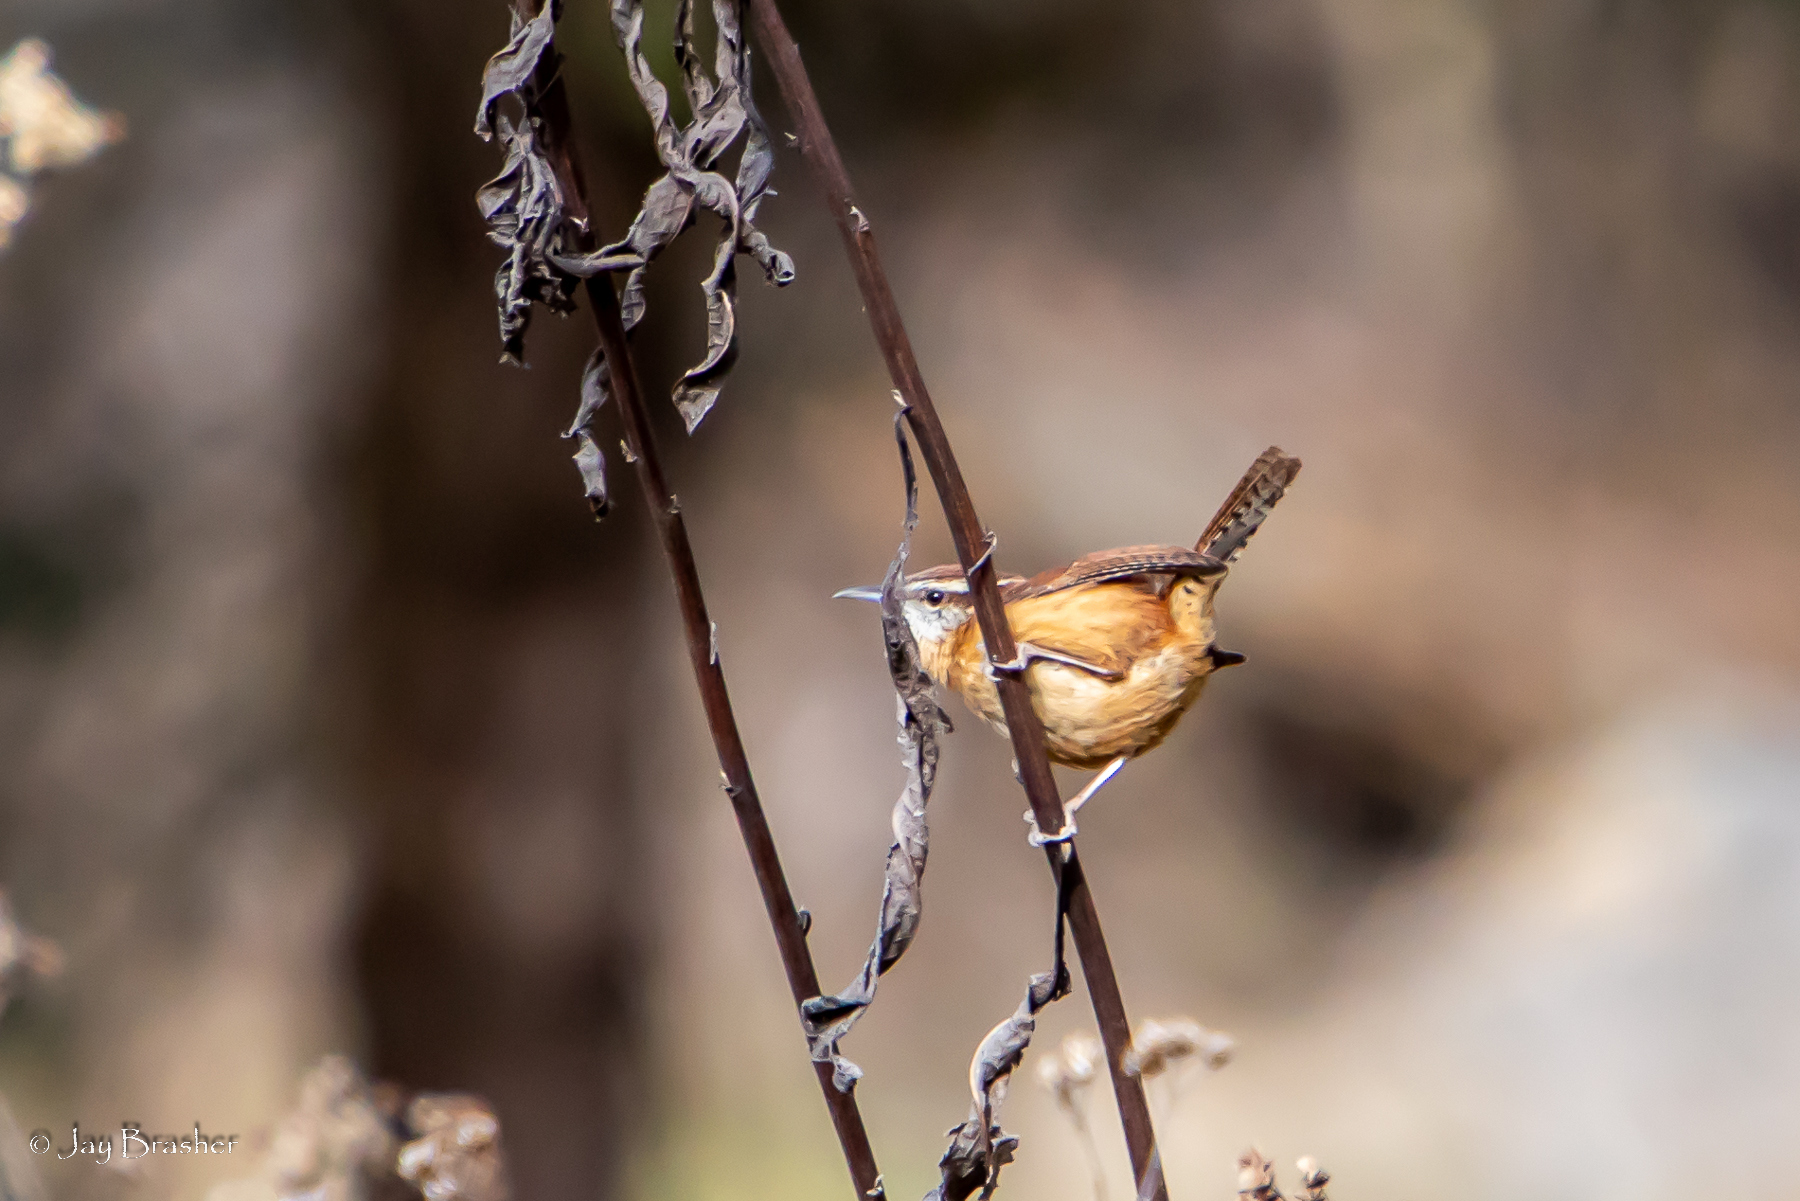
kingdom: Animalia
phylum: Chordata
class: Aves
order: Passeriformes
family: Troglodytidae
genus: Thryothorus
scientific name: Thryothorus ludovicianus
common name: Carolina wren
